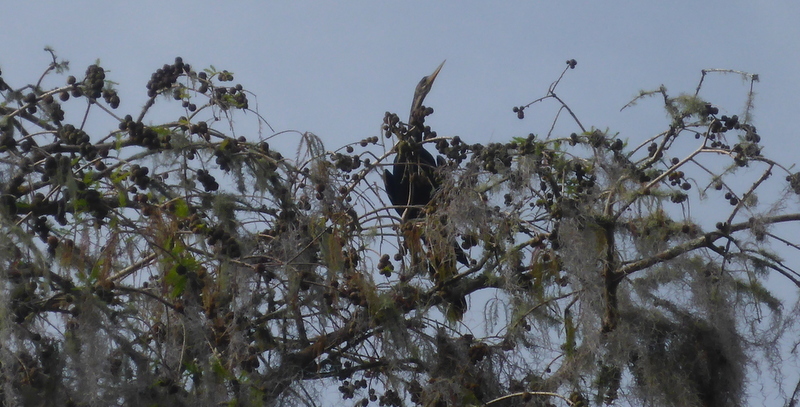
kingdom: Animalia
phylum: Chordata
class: Aves
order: Suliformes
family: Anhingidae
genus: Anhinga
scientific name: Anhinga anhinga
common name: Anhinga
